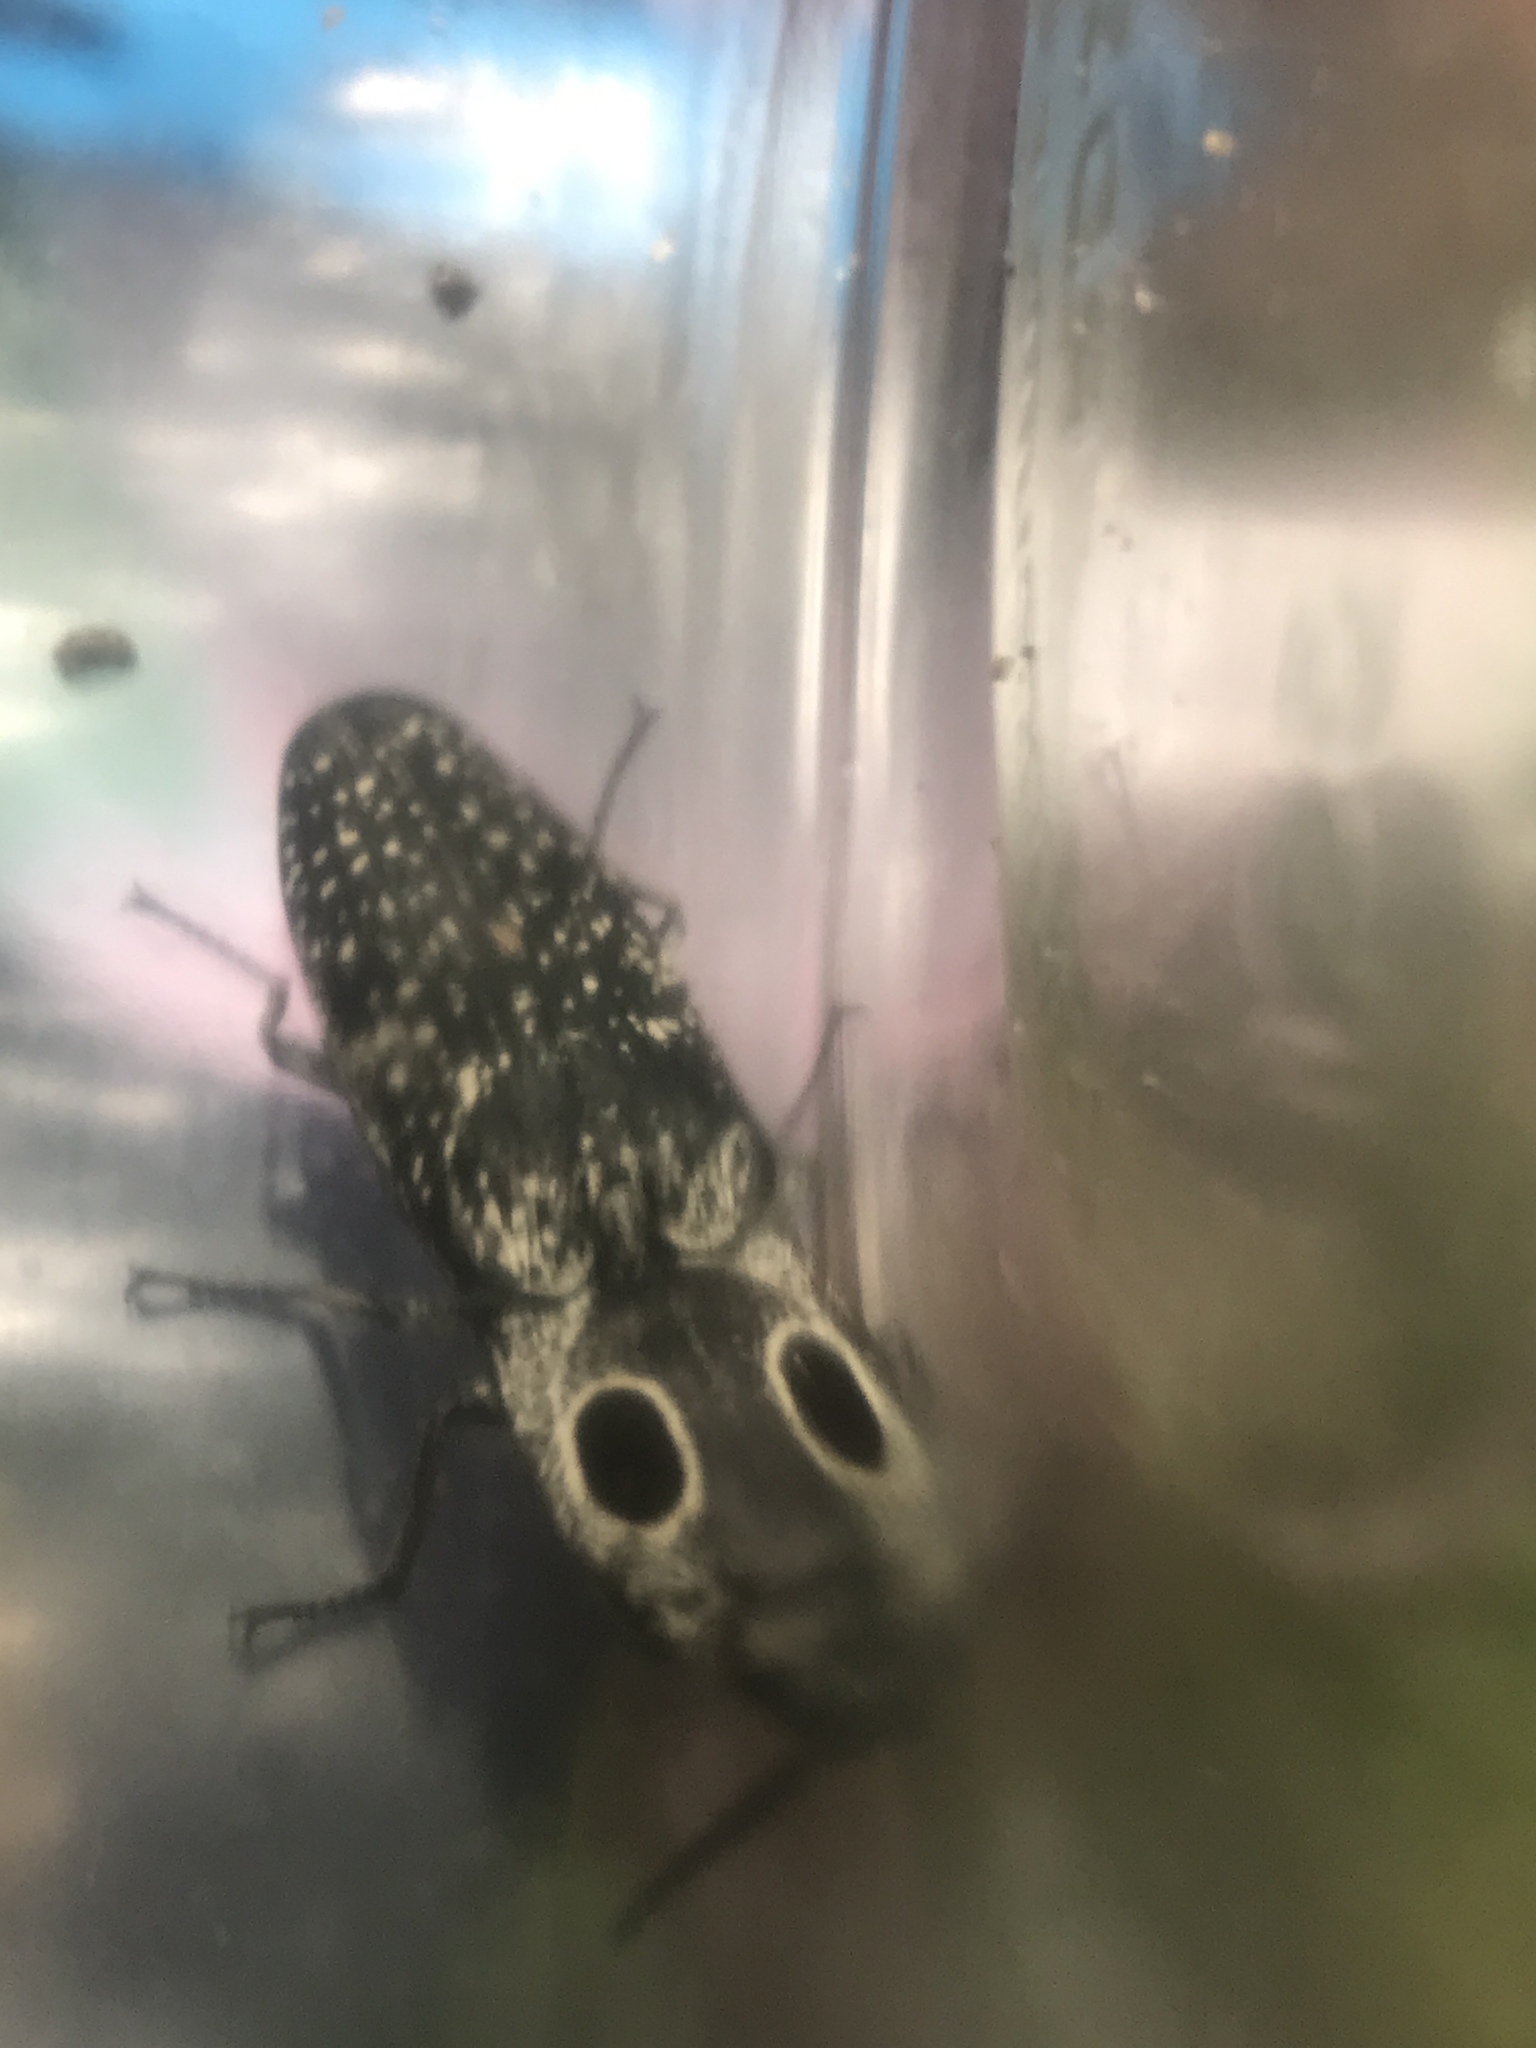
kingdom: Animalia
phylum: Arthropoda
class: Insecta
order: Coleoptera
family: Elateridae
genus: Alaus
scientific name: Alaus oculatus
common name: Eastern eyed click beetle
